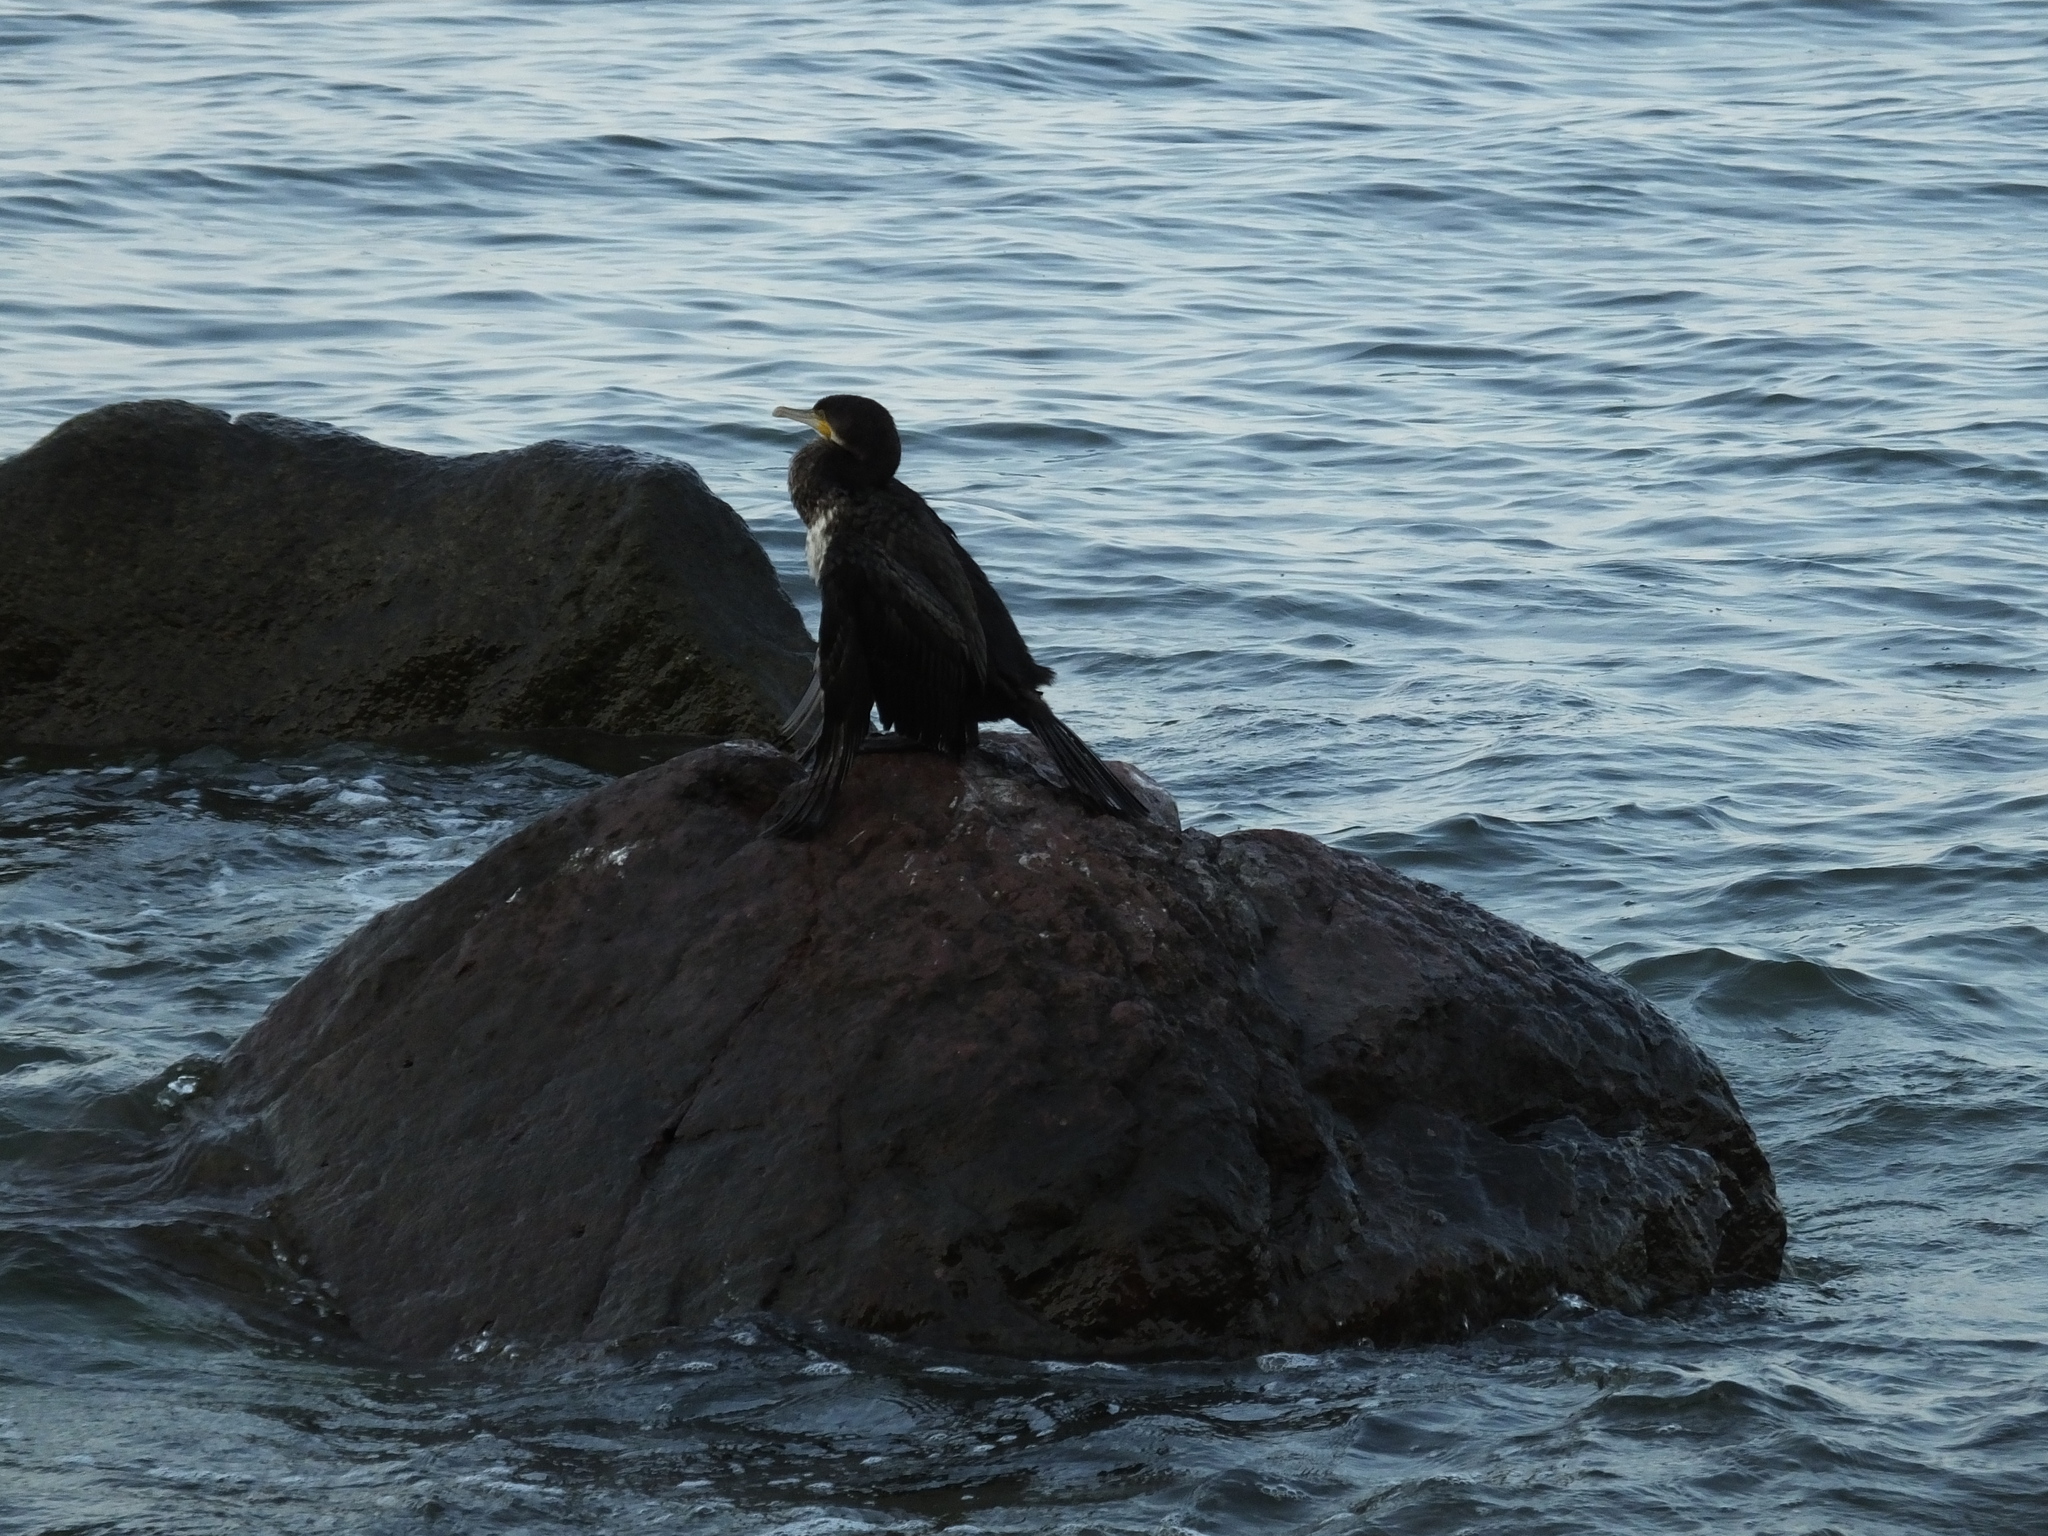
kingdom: Animalia
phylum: Chordata
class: Aves
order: Suliformes
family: Phalacrocoracidae
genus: Phalacrocorax
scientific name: Phalacrocorax carbo
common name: Great cormorant
